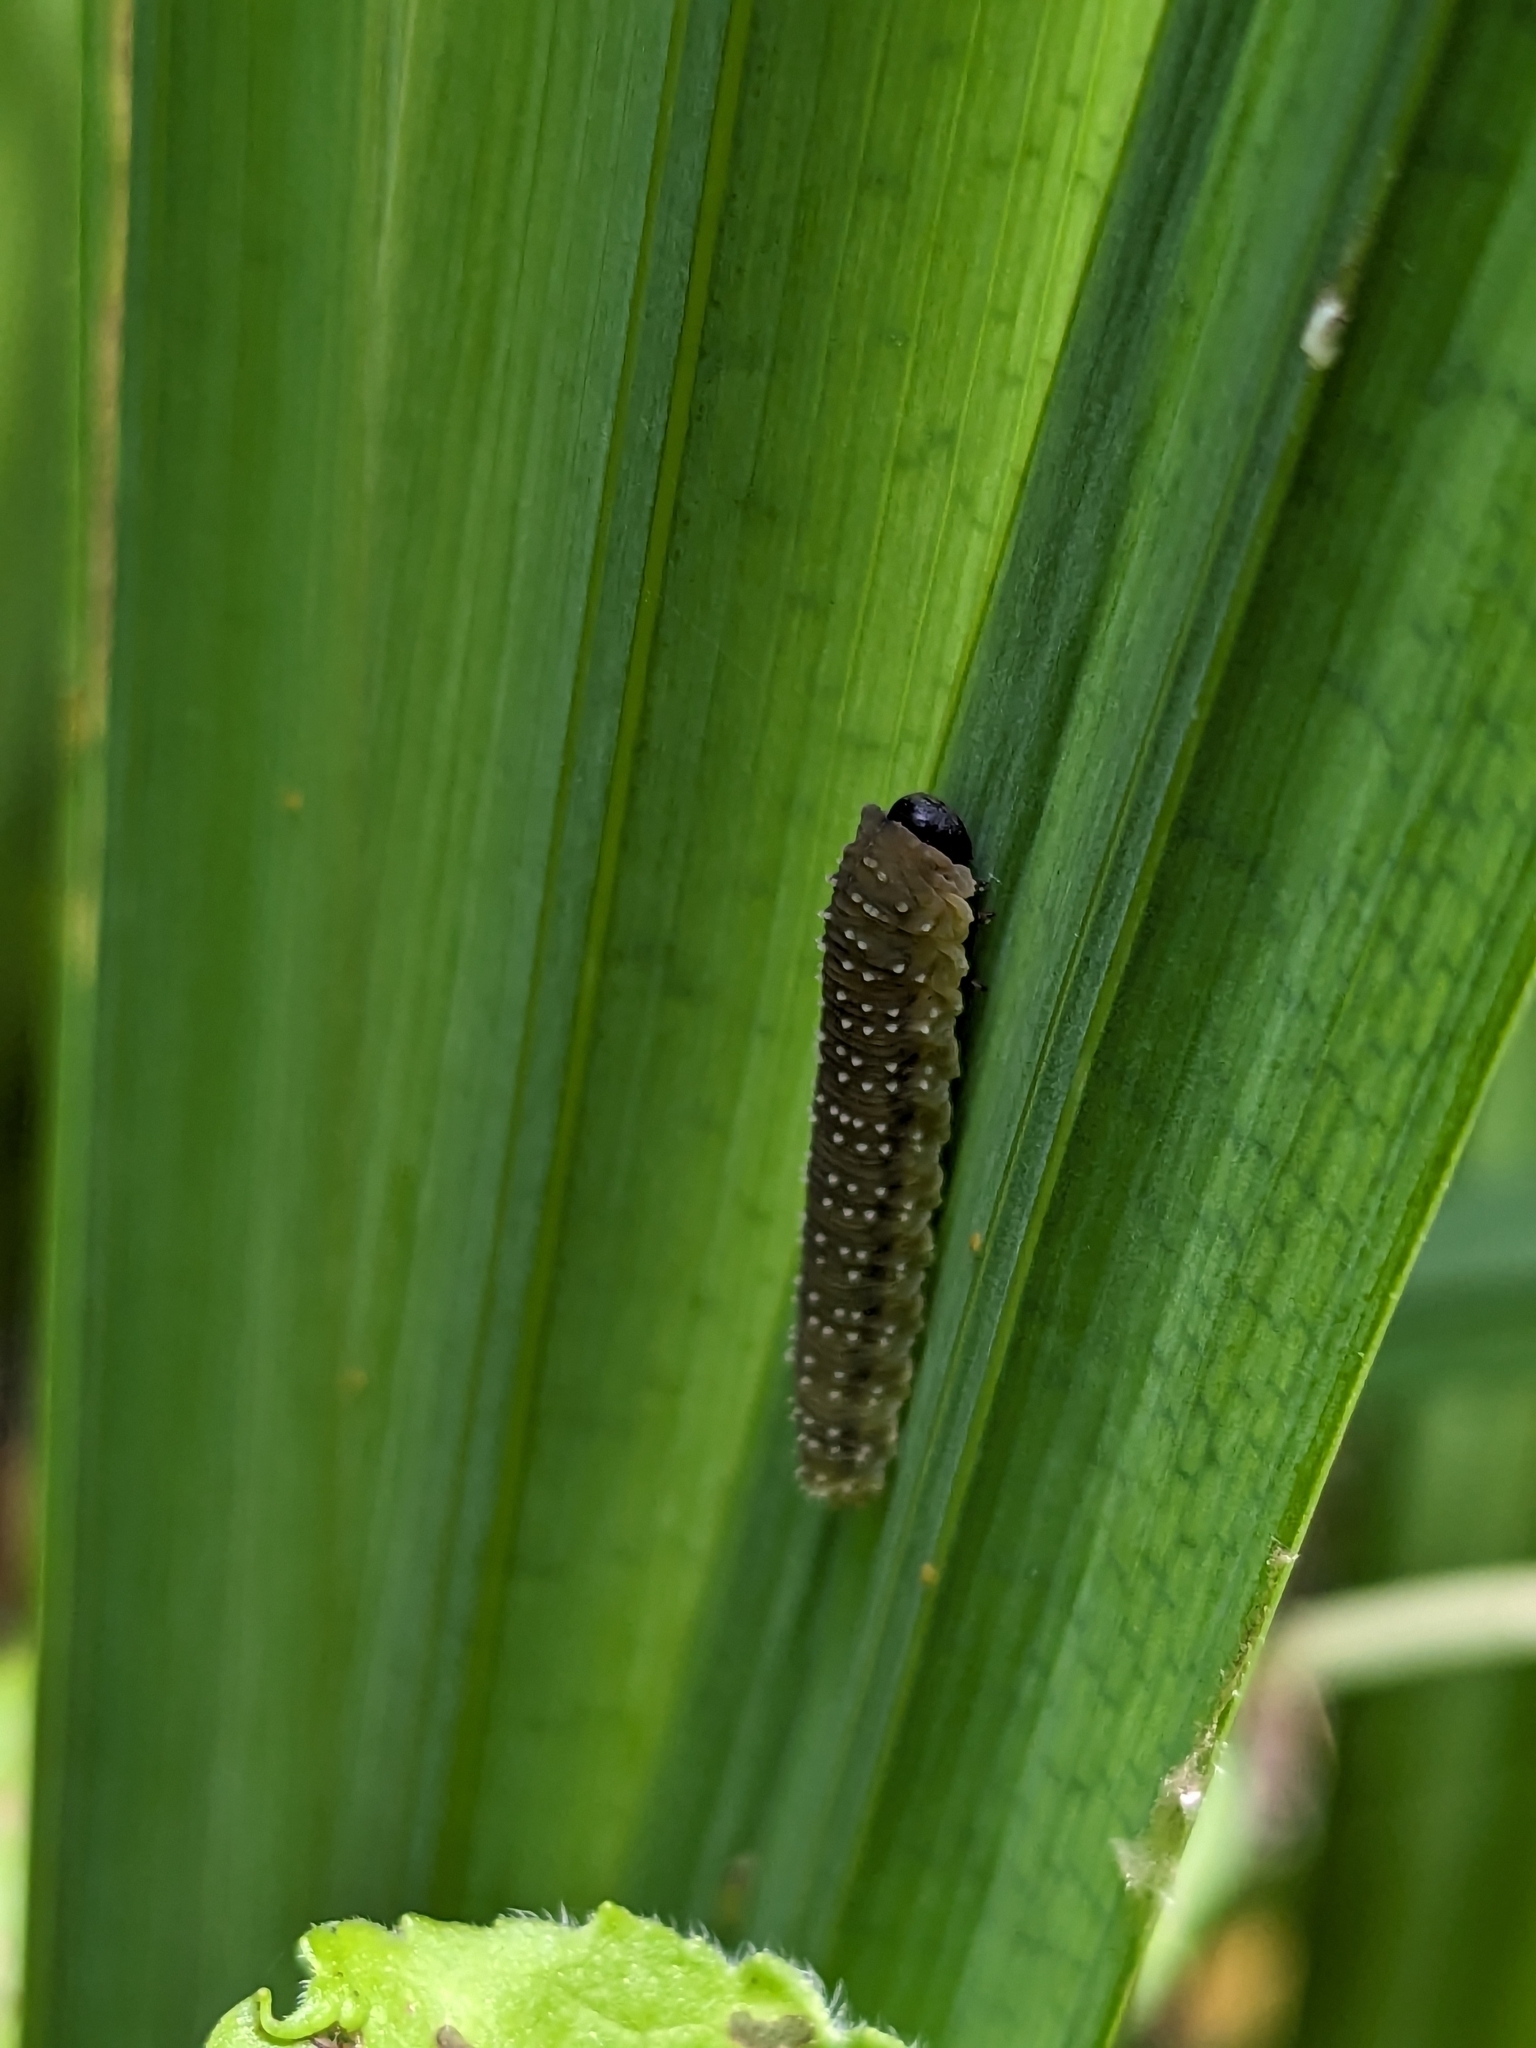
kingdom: Animalia
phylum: Arthropoda
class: Insecta
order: Hymenoptera
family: Tenthredinidae
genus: Rhadinoceraea
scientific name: Rhadinoceraea micans
